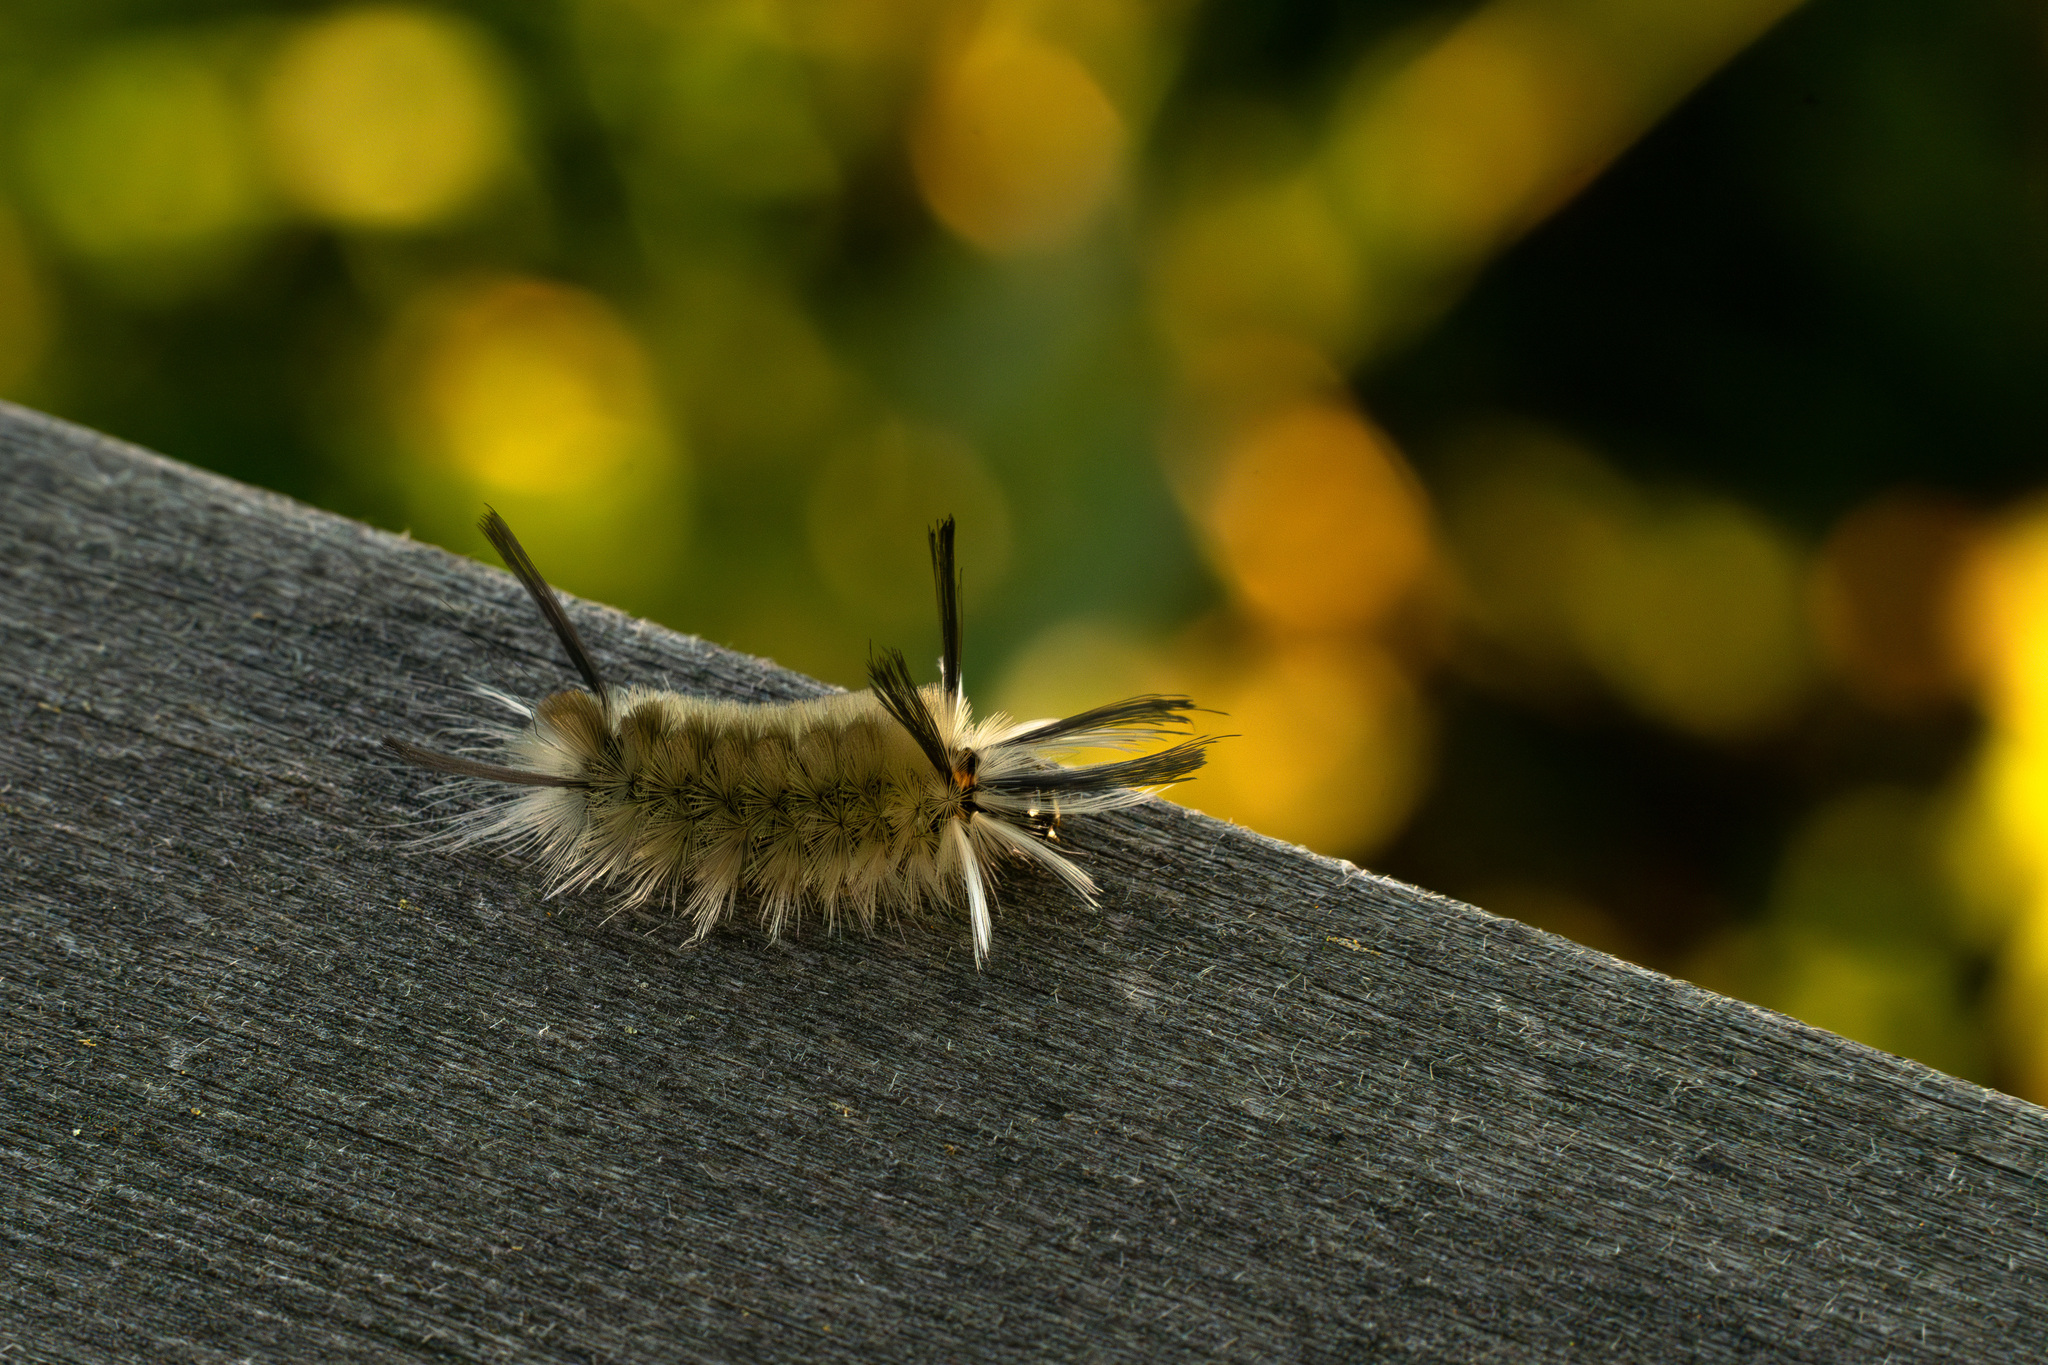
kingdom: Animalia
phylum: Arthropoda
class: Insecta
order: Lepidoptera
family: Erebidae
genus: Halysidota
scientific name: Halysidota tessellaris
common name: Banded tussock moth
